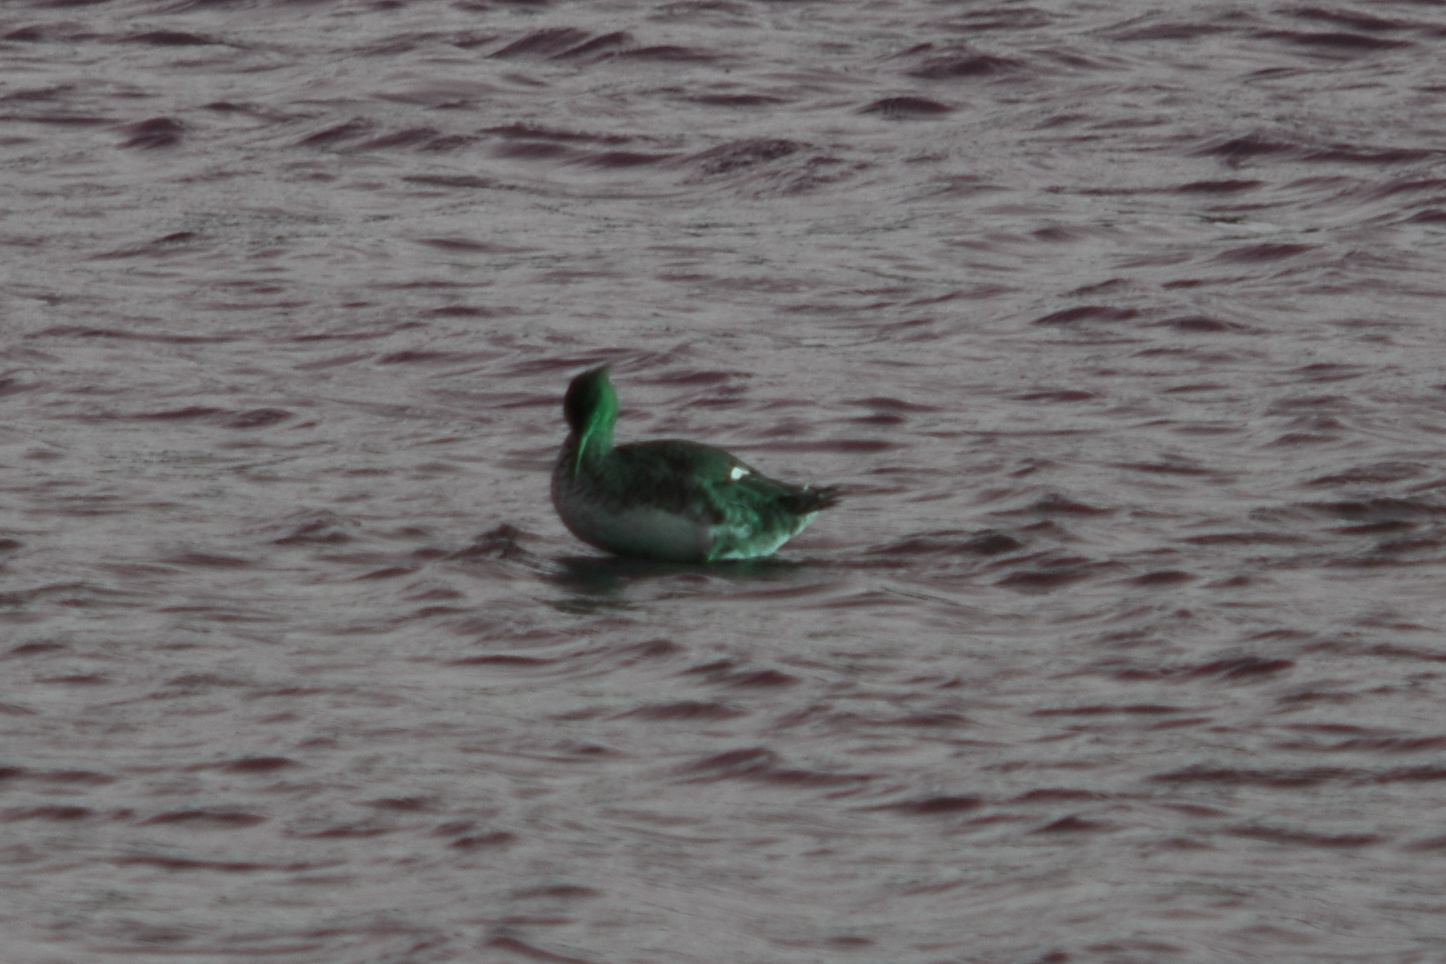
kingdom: Animalia
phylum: Chordata
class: Aves
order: Anseriformes
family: Anatidae
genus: Mergus
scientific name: Mergus serrator
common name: Red-breasted merganser
